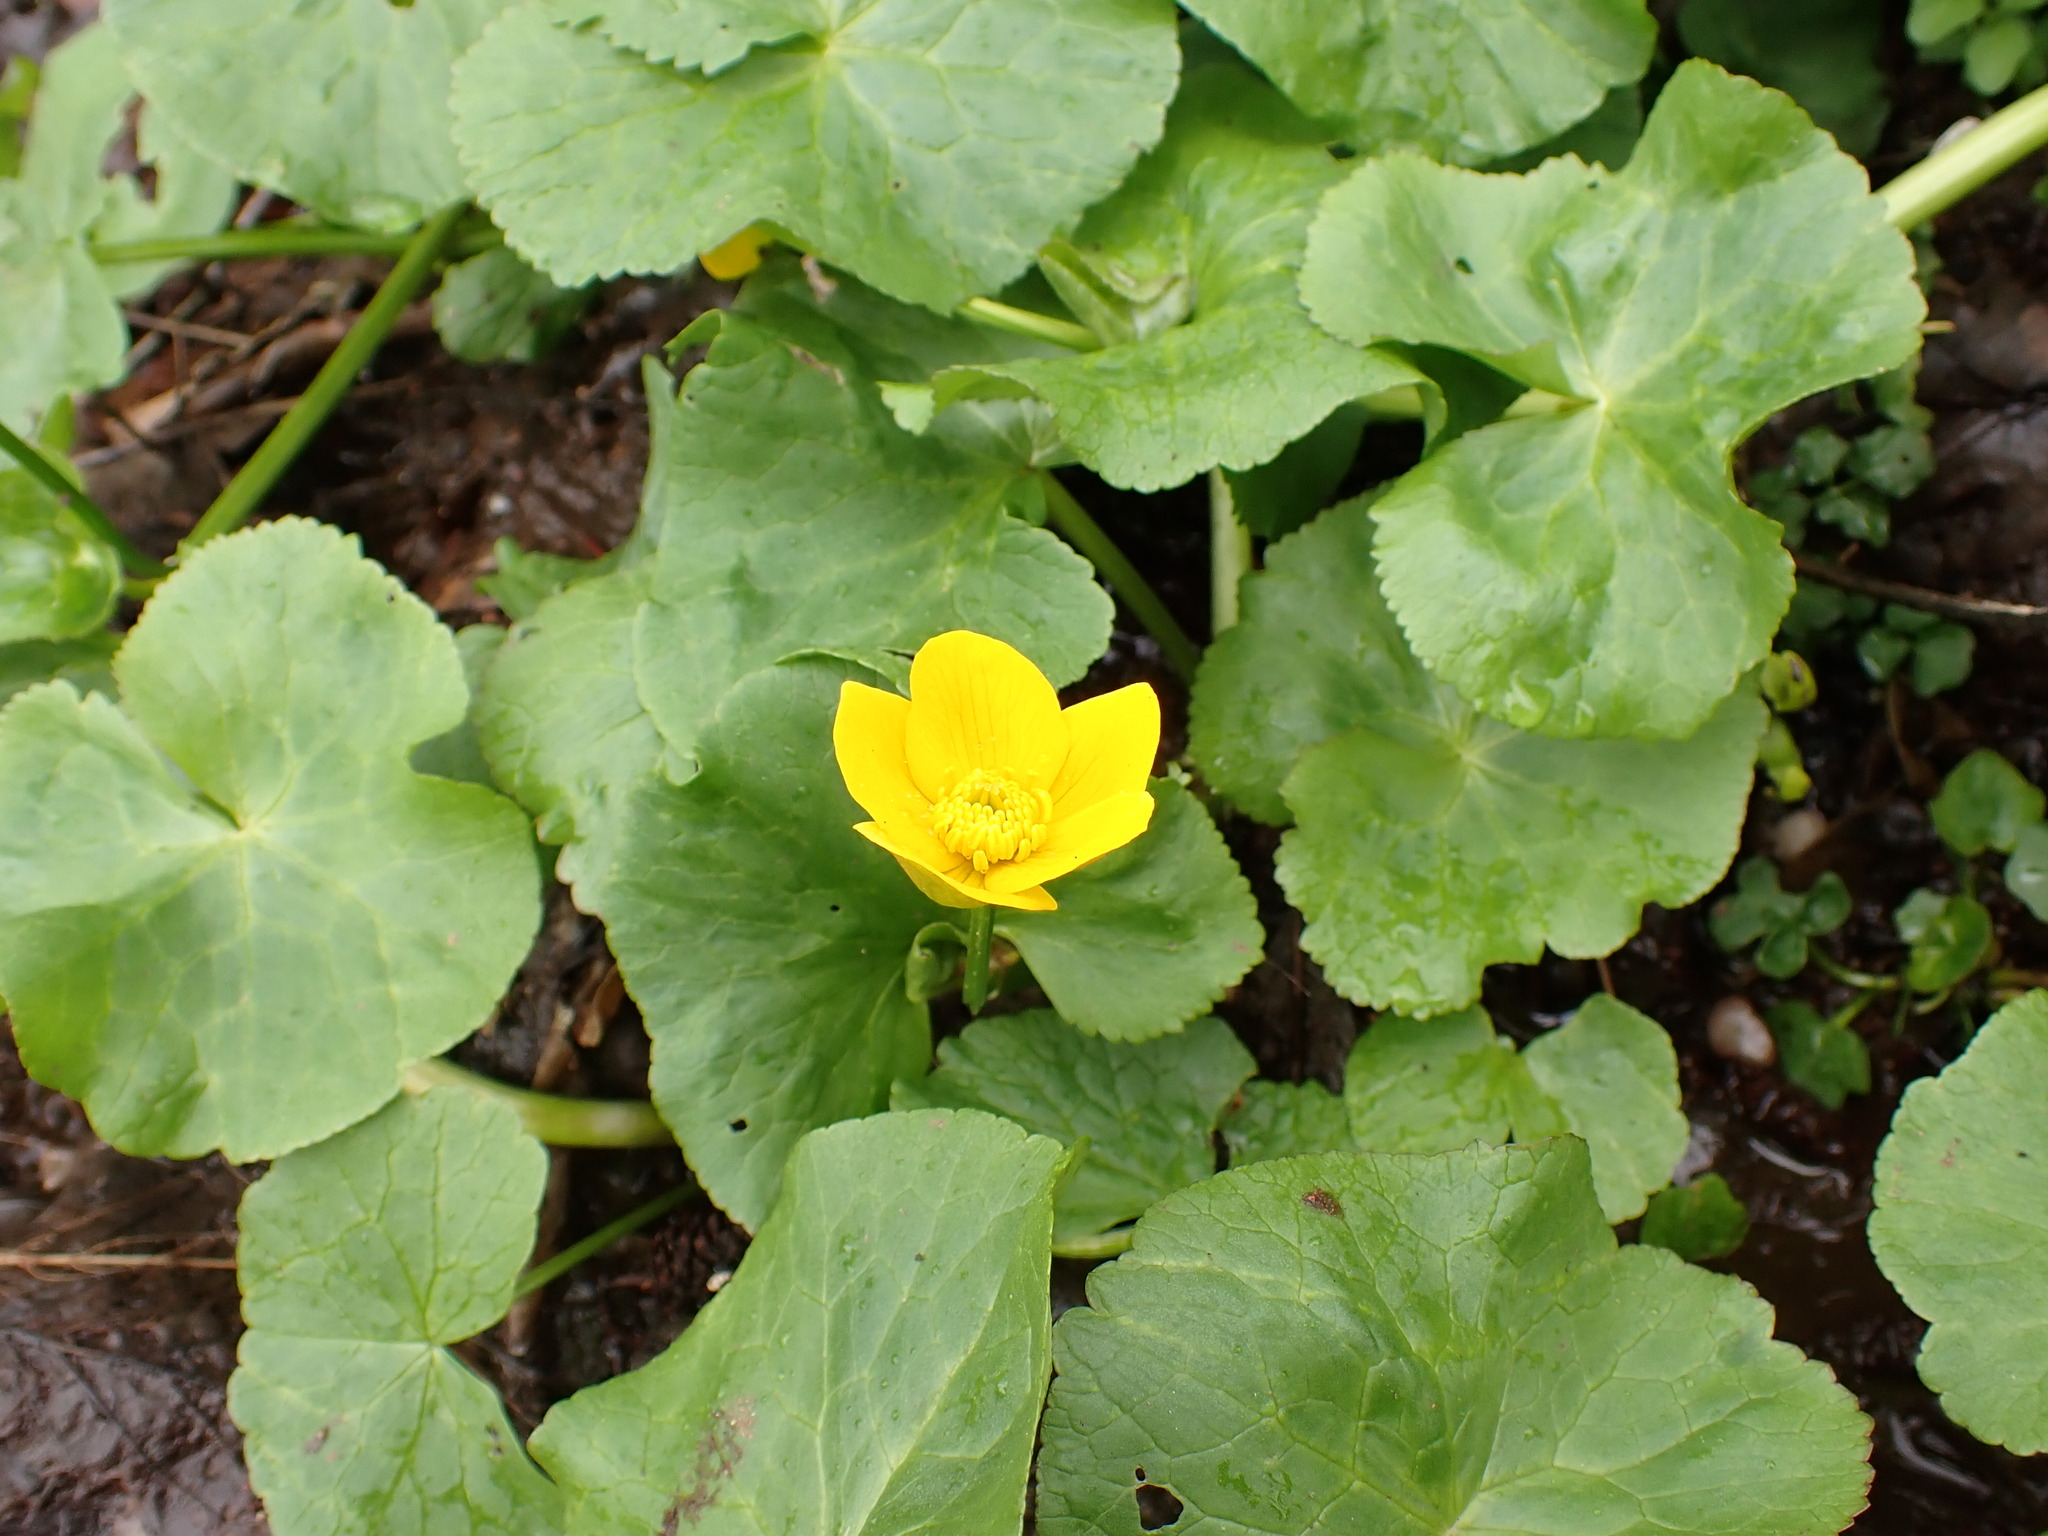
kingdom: Plantae
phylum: Tracheophyta
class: Magnoliopsida
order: Ranunculales
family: Ranunculaceae
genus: Caltha
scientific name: Caltha palustris
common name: Marsh marigold
